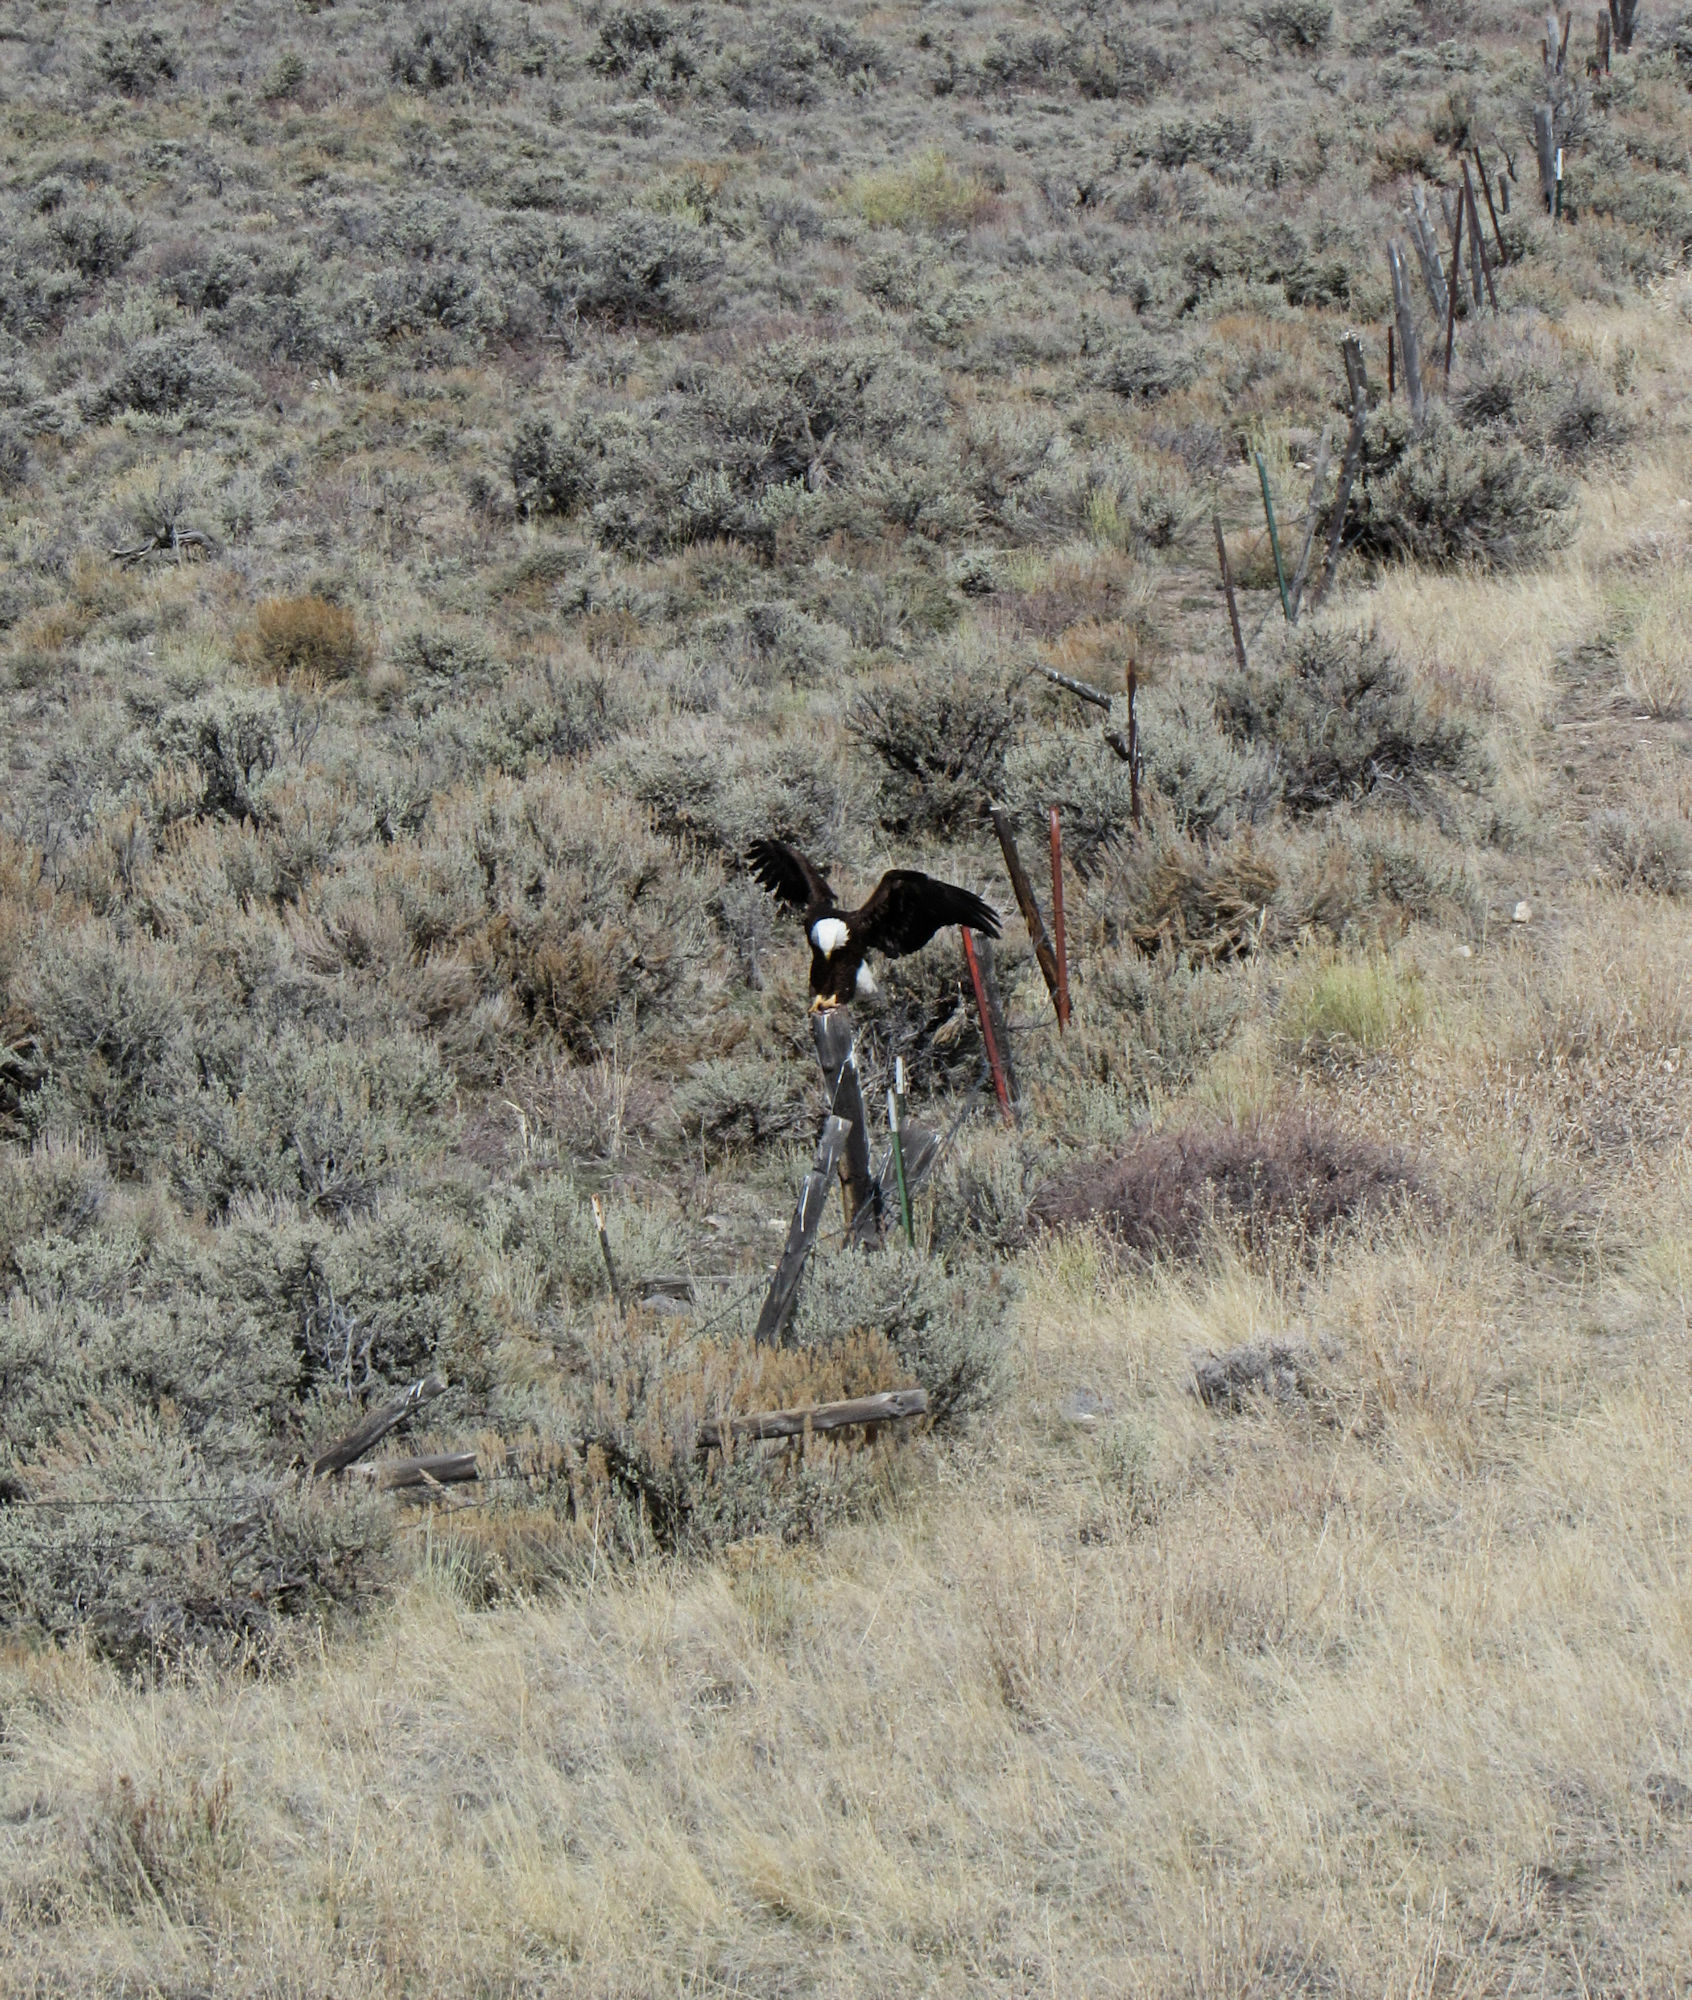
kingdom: Animalia
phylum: Chordata
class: Aves
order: Accipitriformes
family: Accipitridae
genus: Haliaeetus
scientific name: Haliaeetus leucocephalus
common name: Bald eagle
